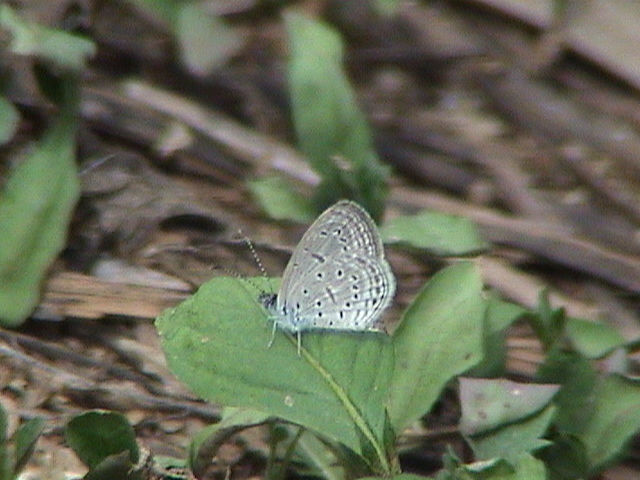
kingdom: Animalia
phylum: Arthropoda
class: Insecta
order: Lepidoptera
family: Lycaenidae
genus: Zizula
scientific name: Zizula hylax
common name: Gaika blue
